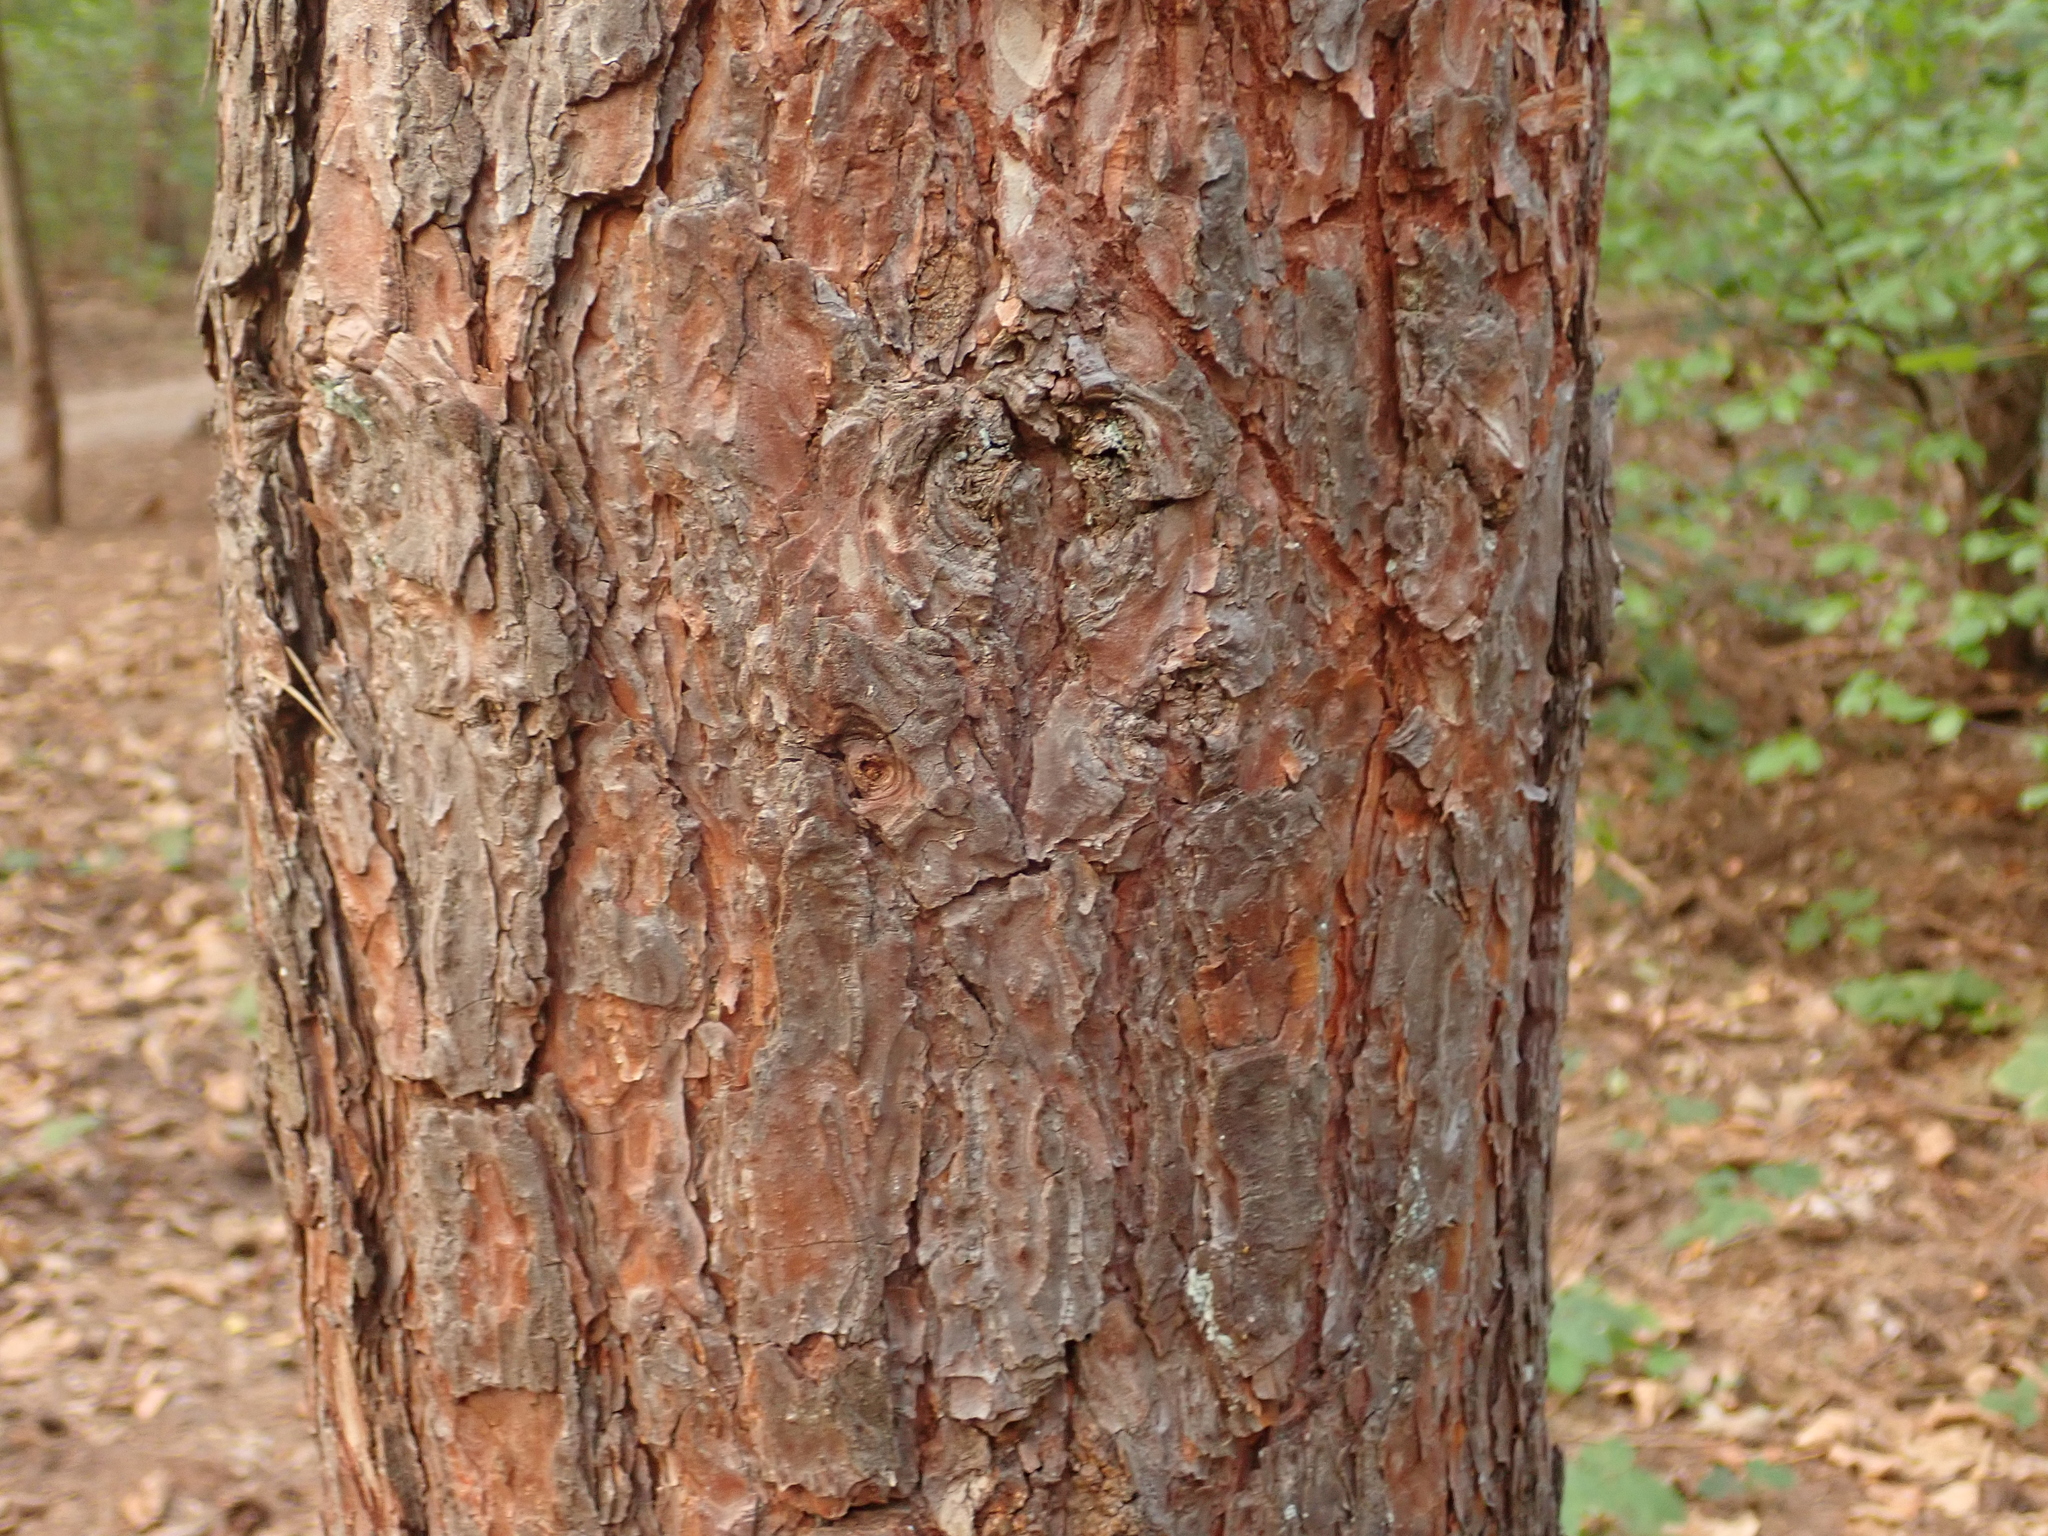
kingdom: Plantae
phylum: Tracheophyta
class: Pinopsida
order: Pinales
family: Pinaceae
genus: Pinus
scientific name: Pinus sylvestris
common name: Scots pine
